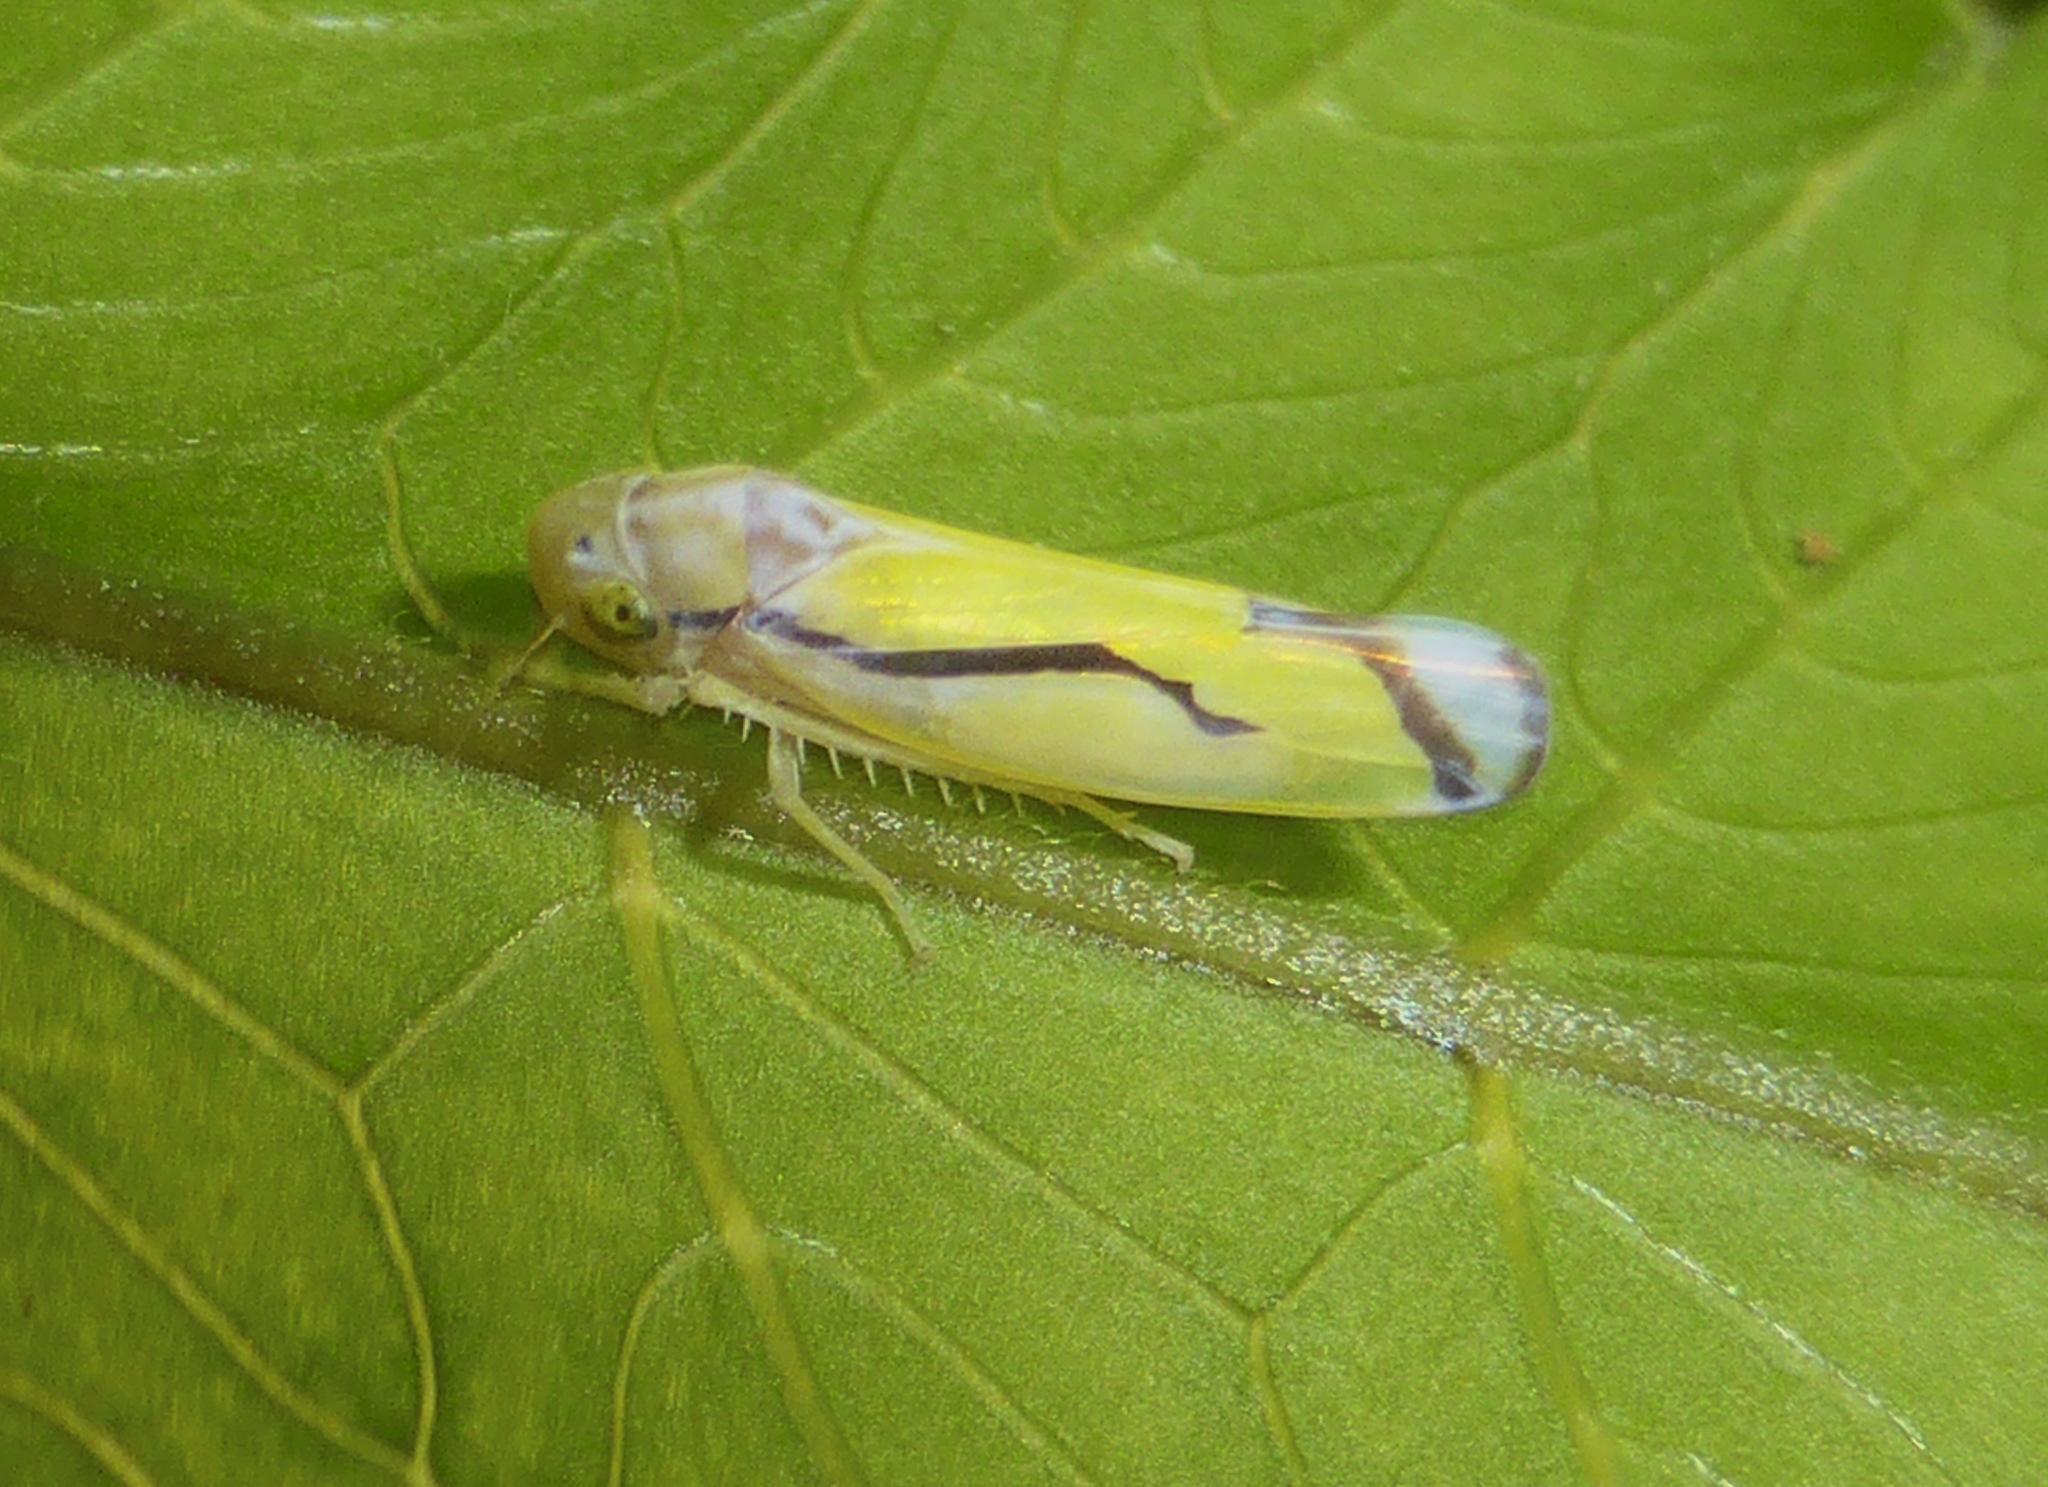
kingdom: Animalia
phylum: Arthropoda
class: Insecta
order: Hemiptera
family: Cicadellidae
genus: Hangapa
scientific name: Hangapa parallela
